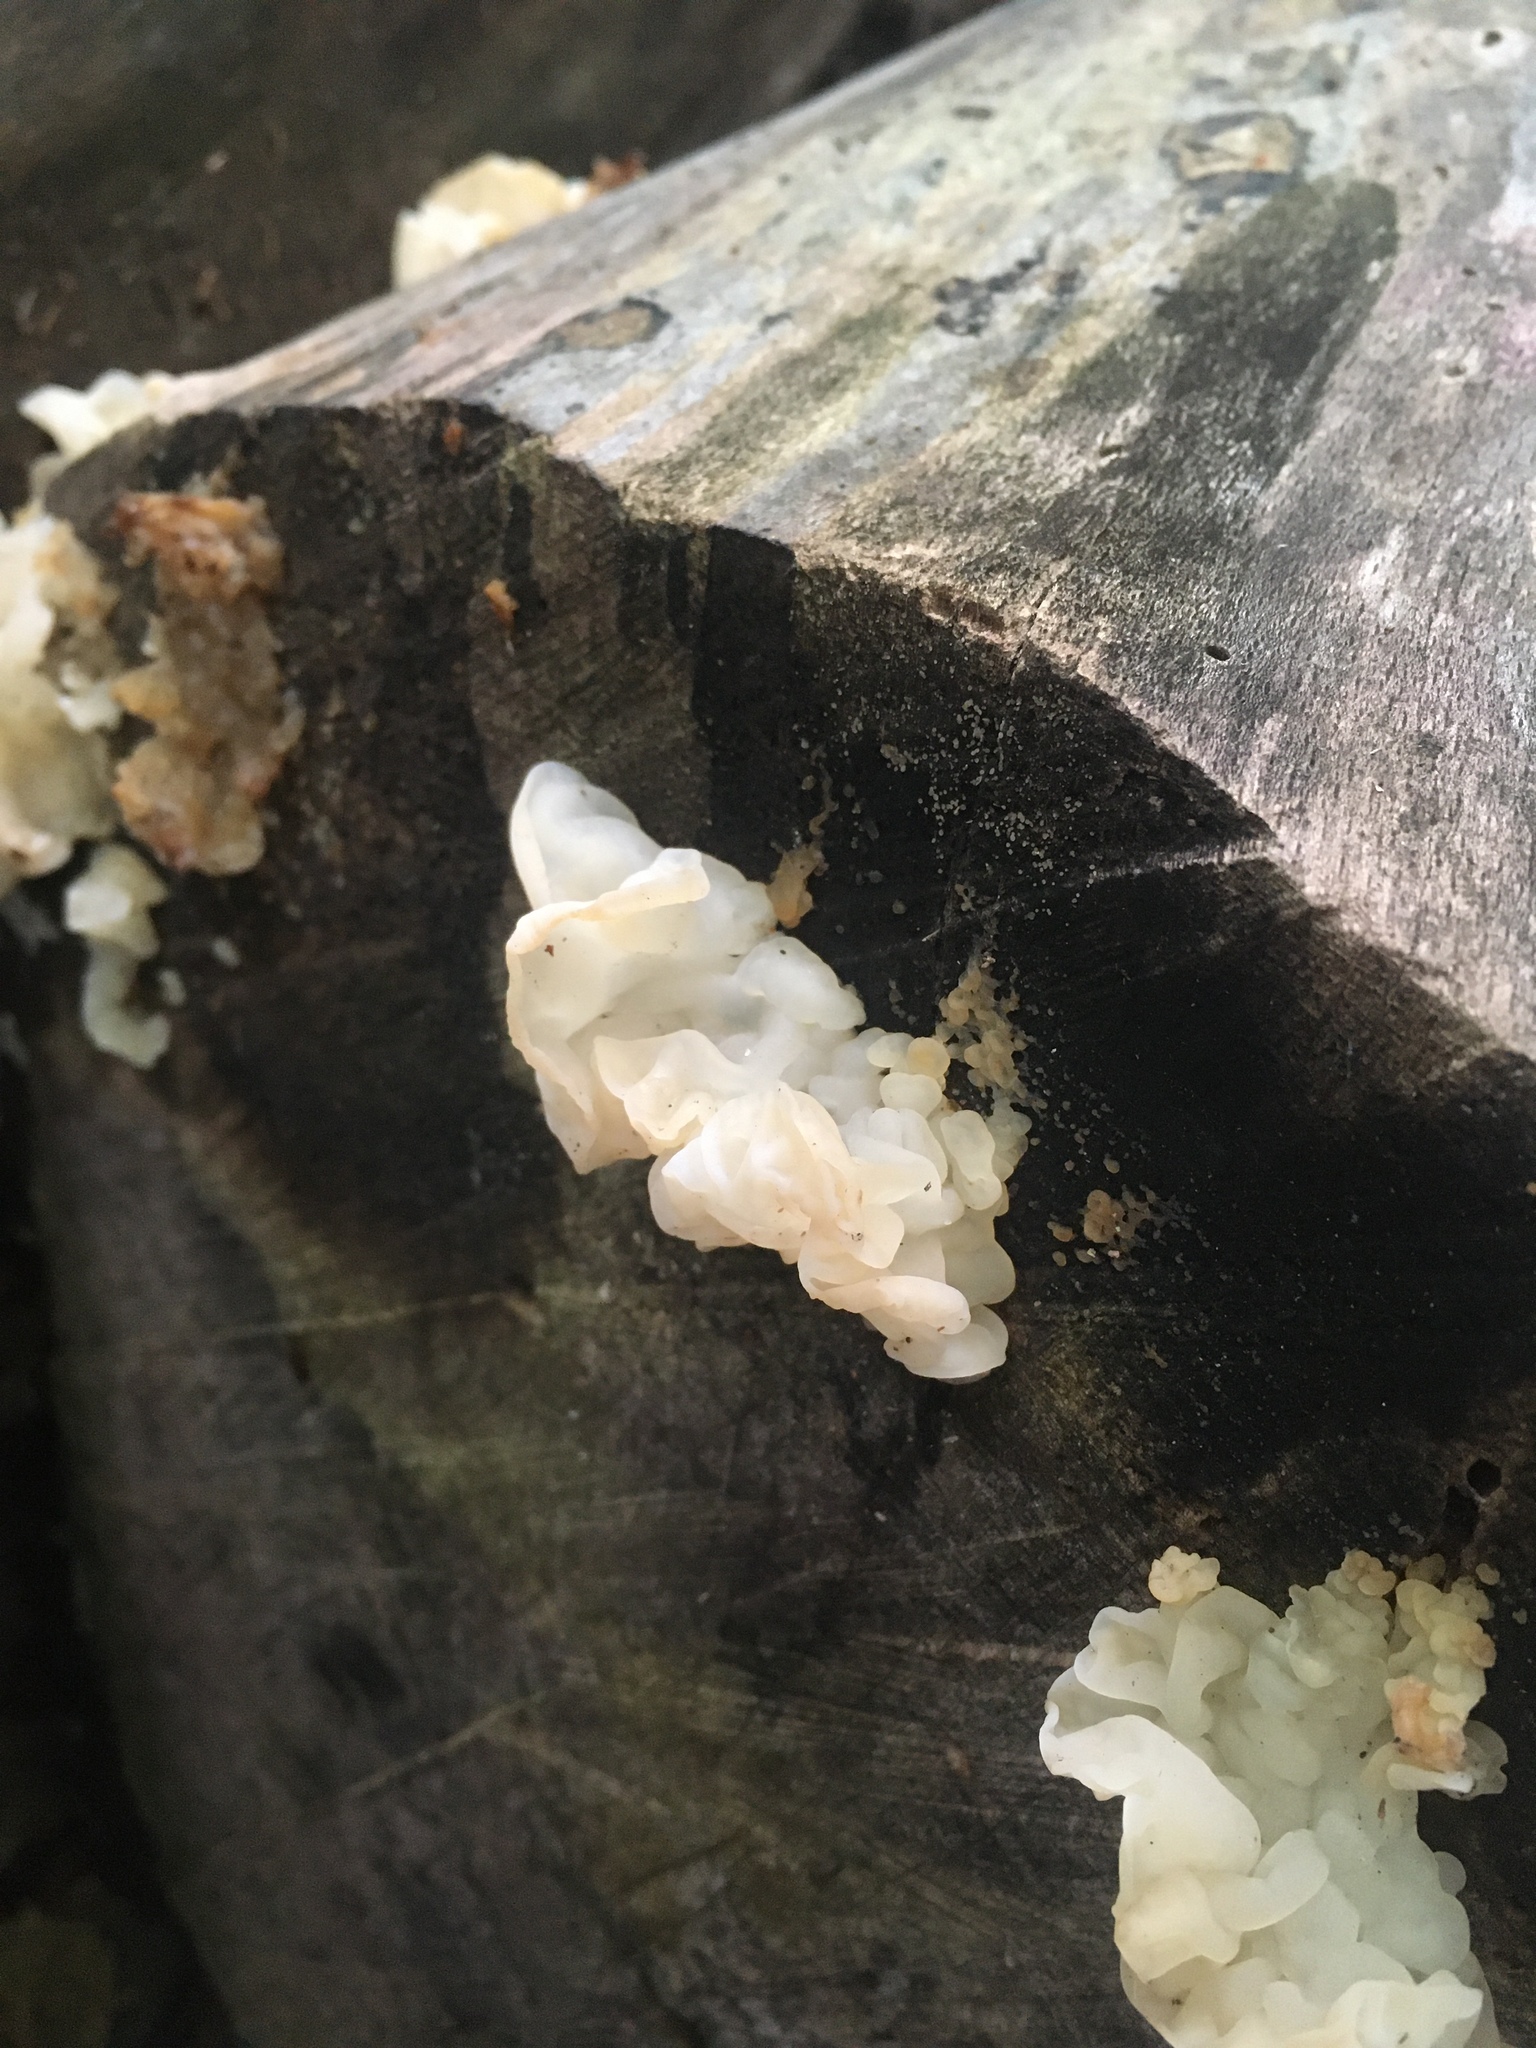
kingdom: Fungi
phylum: Basidiomycota
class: Agaricomycetes
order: Auriculariales
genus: Ductifera
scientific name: Ductifera pululahuana
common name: White jelly fungus
